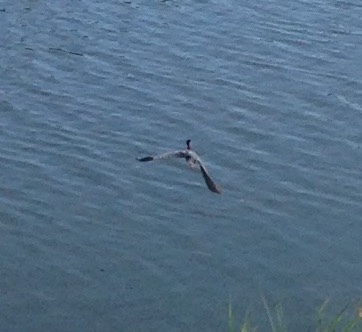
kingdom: Animalia
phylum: Chordata
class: Aves
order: Pelecaniformes
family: Ardeidae
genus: Ardea
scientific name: Ardea herodias
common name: Great blue heron
